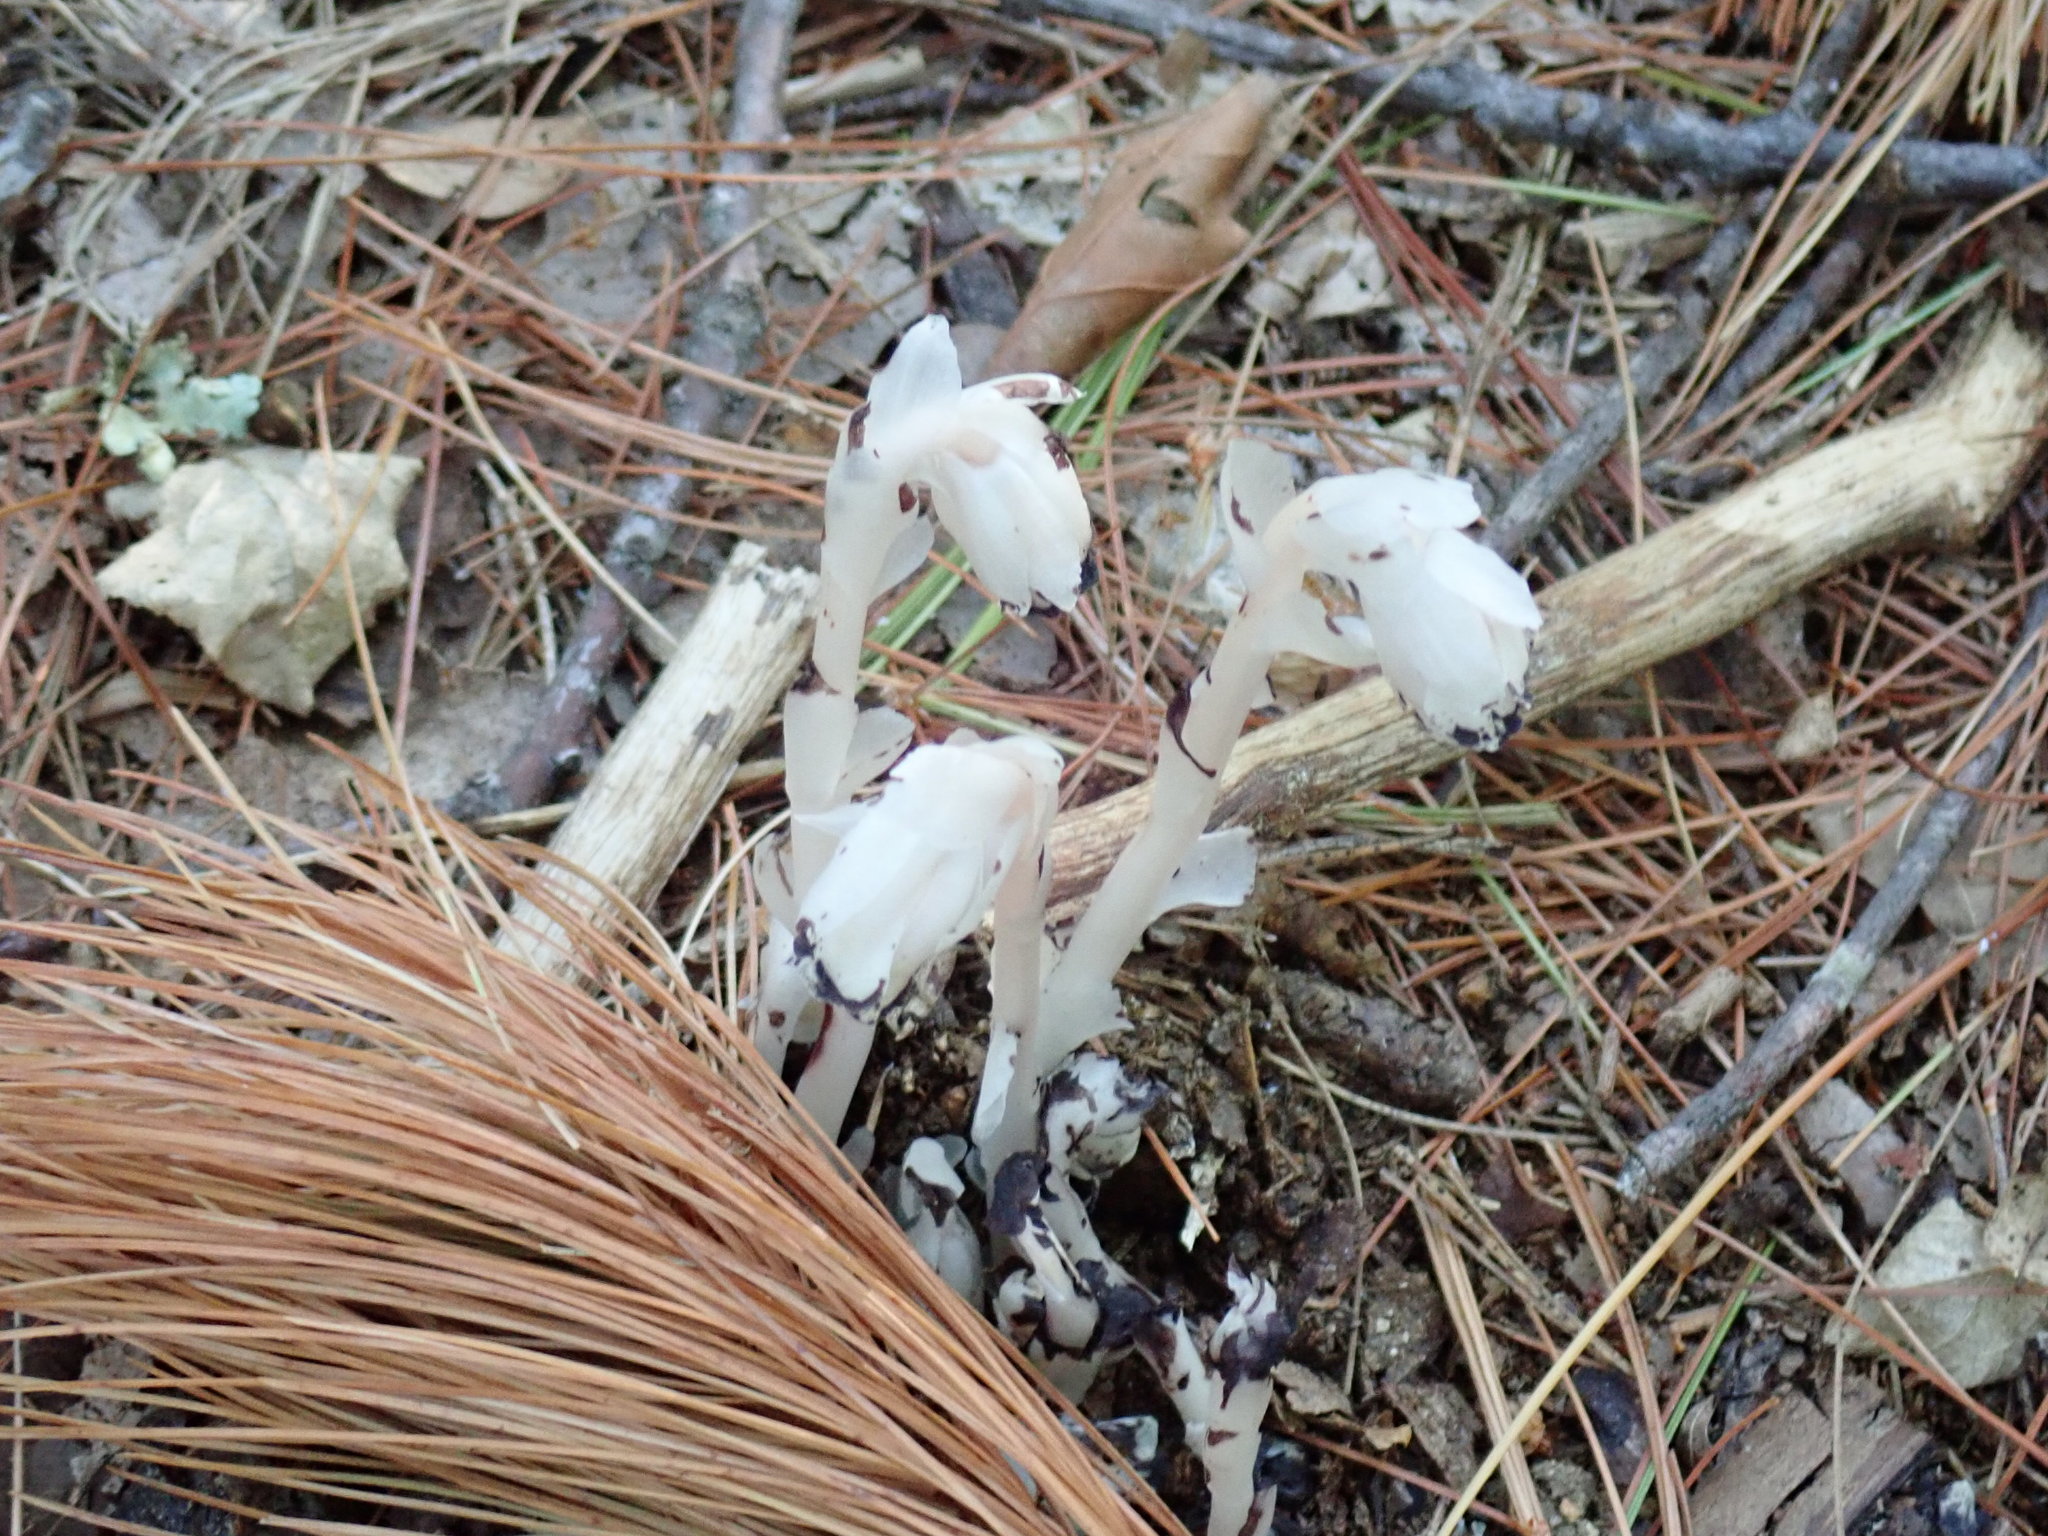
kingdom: Plantae
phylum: Tracheophyta
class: Magnoliopsida
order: Ericales
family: Ericaceae
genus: Monotropa
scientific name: Monotropa uniflora
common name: Convulsion root
